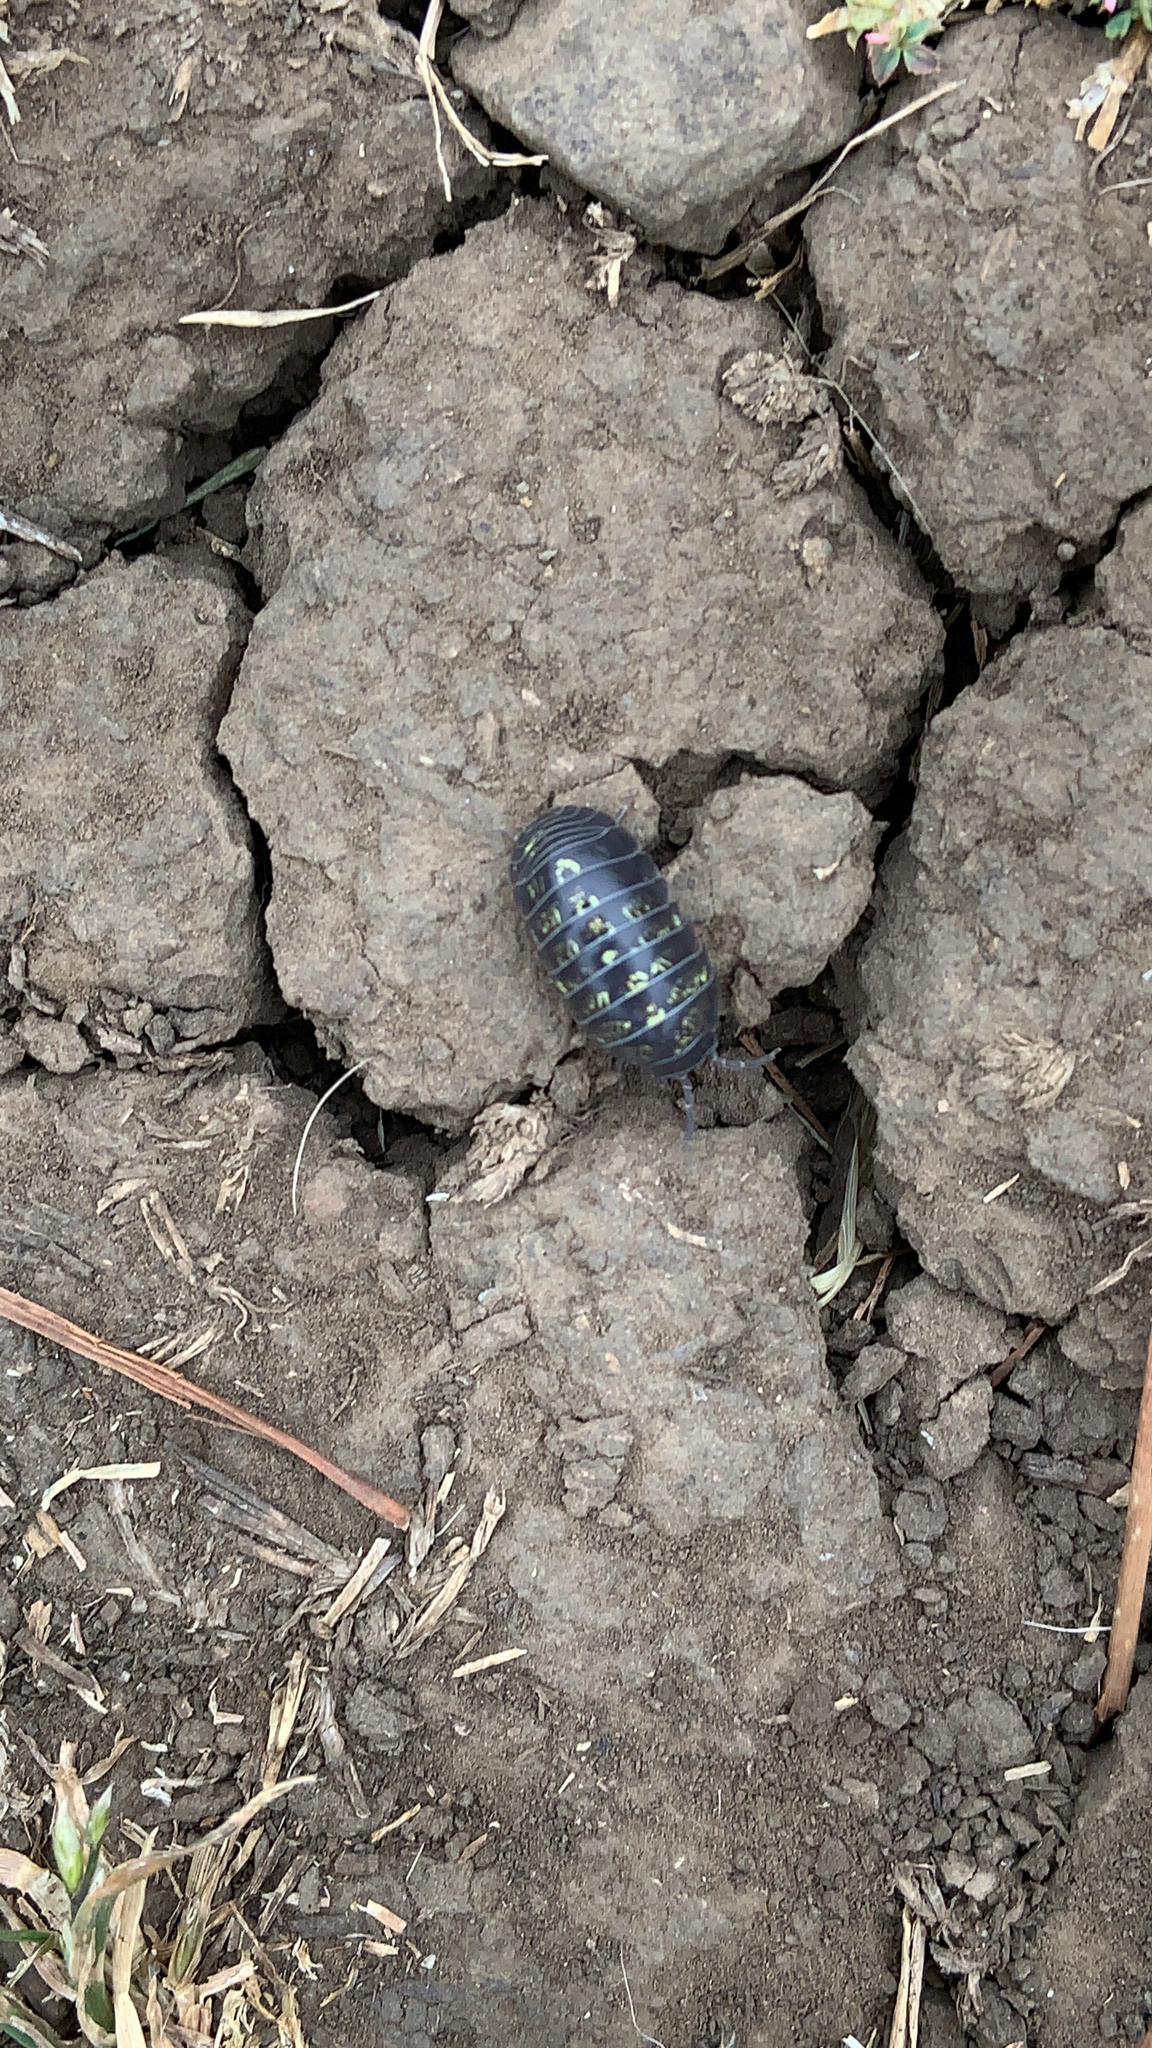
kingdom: Animalia
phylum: Arthropoda
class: Malacostraca
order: Isopoda
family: Armadillidiidae
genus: Armadillidium
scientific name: Armadillidium vulgare
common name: Common pill woodlouse
